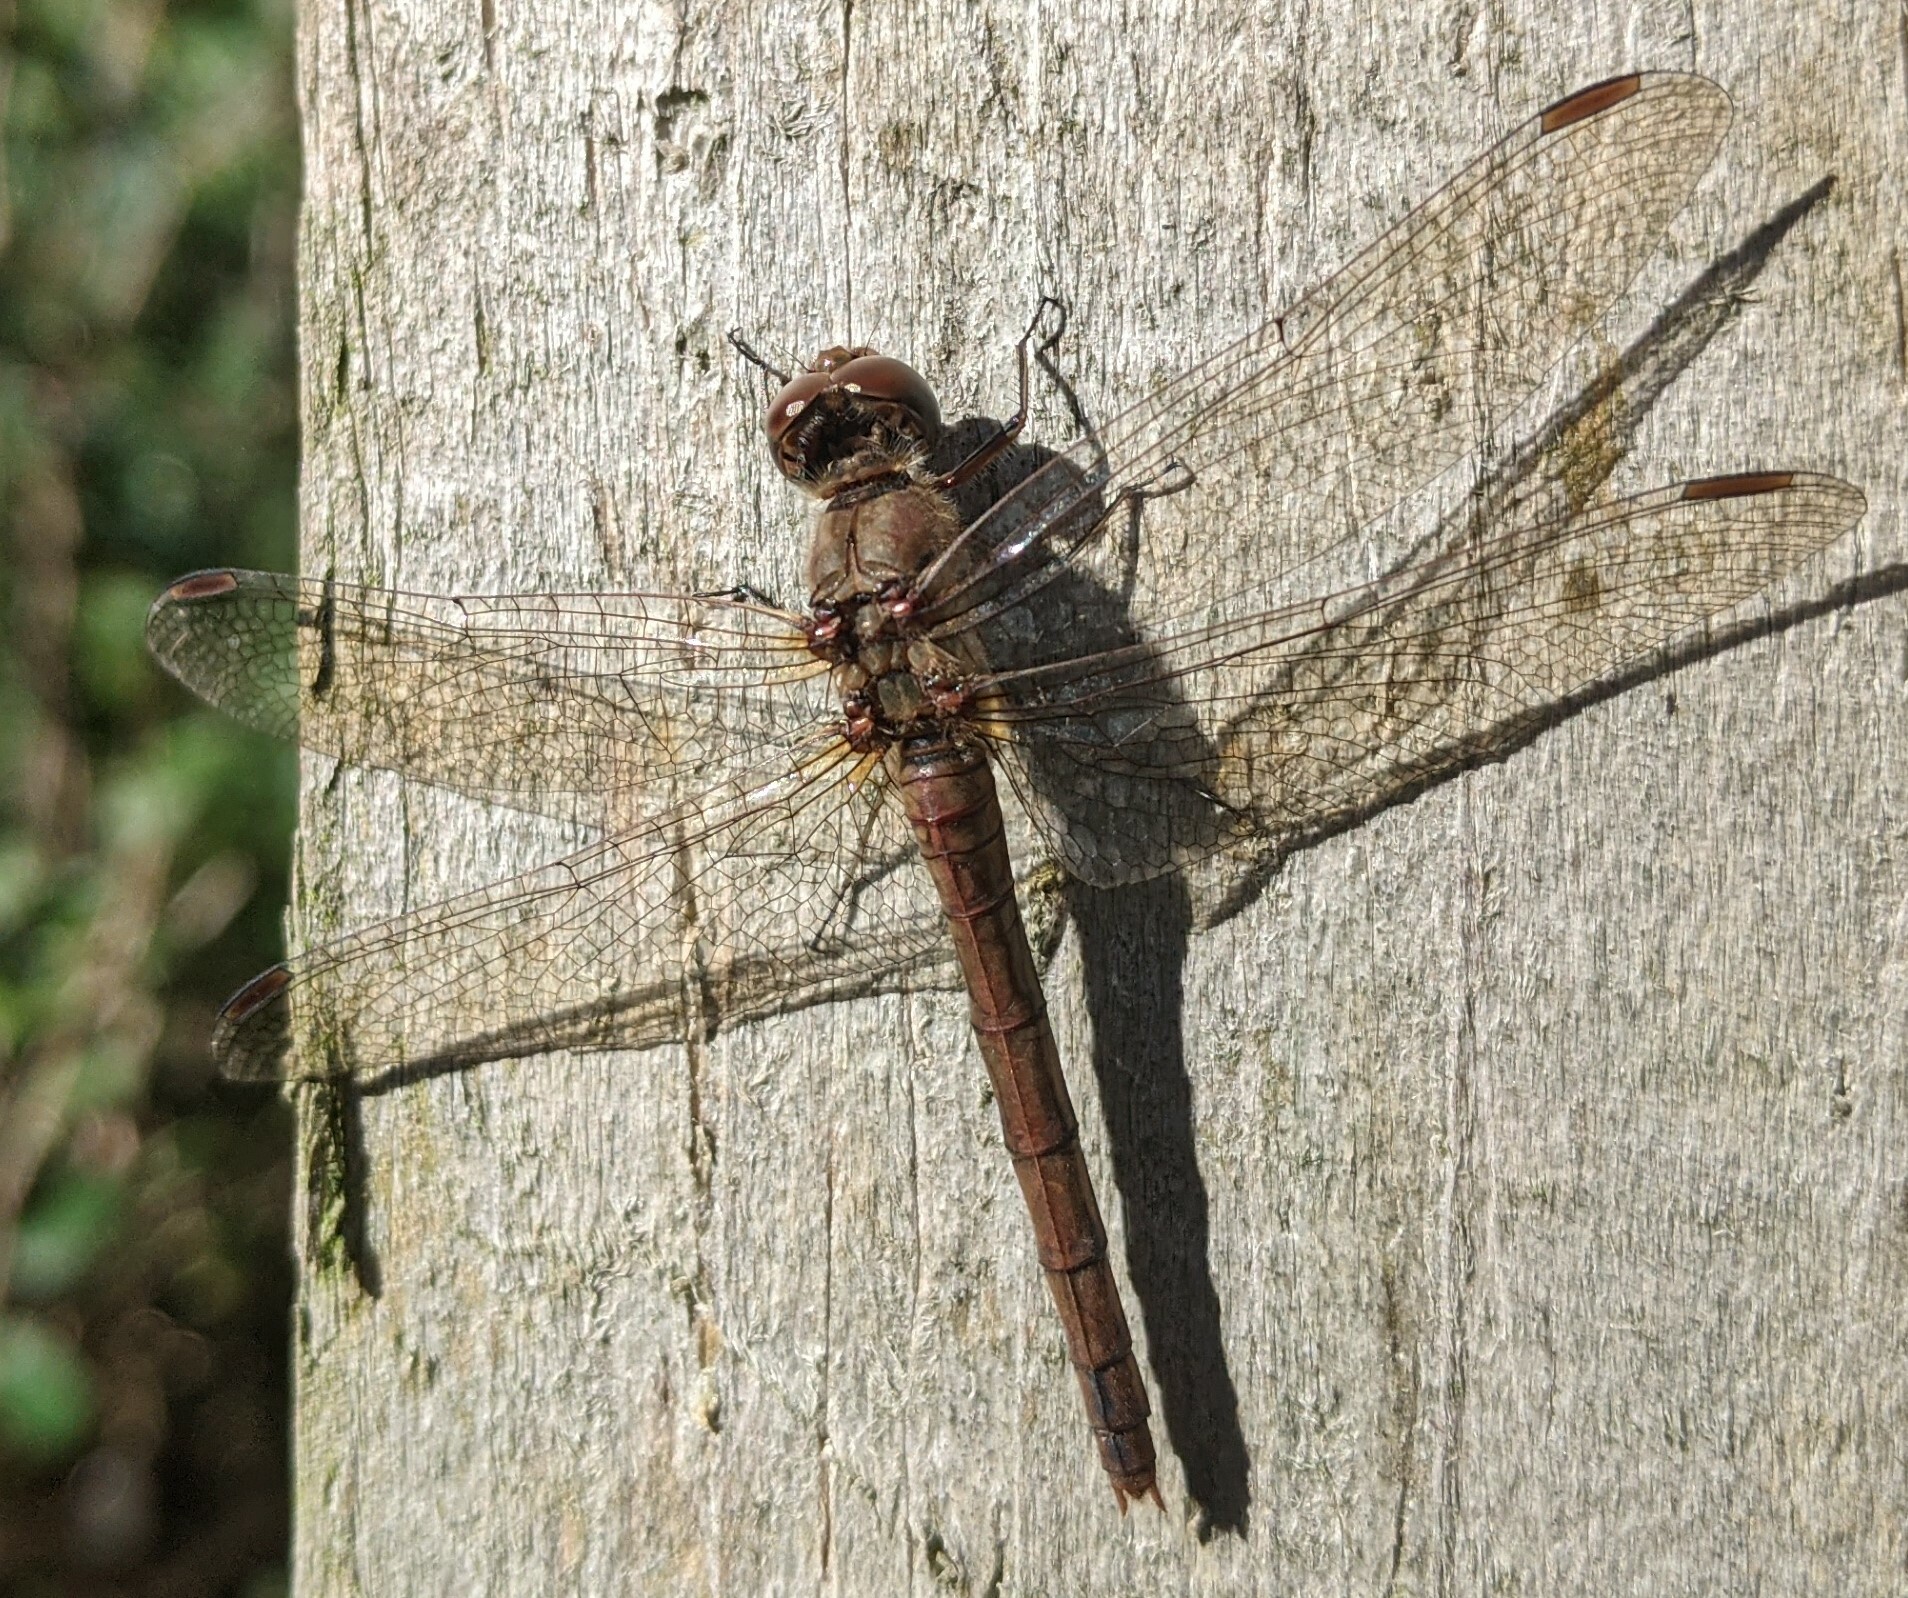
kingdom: Animalia
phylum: Arthropoda
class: Insecta
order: Odonata
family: Libellulidae
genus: Sympetrum
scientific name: Sympetrum striolatum
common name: Common darter
